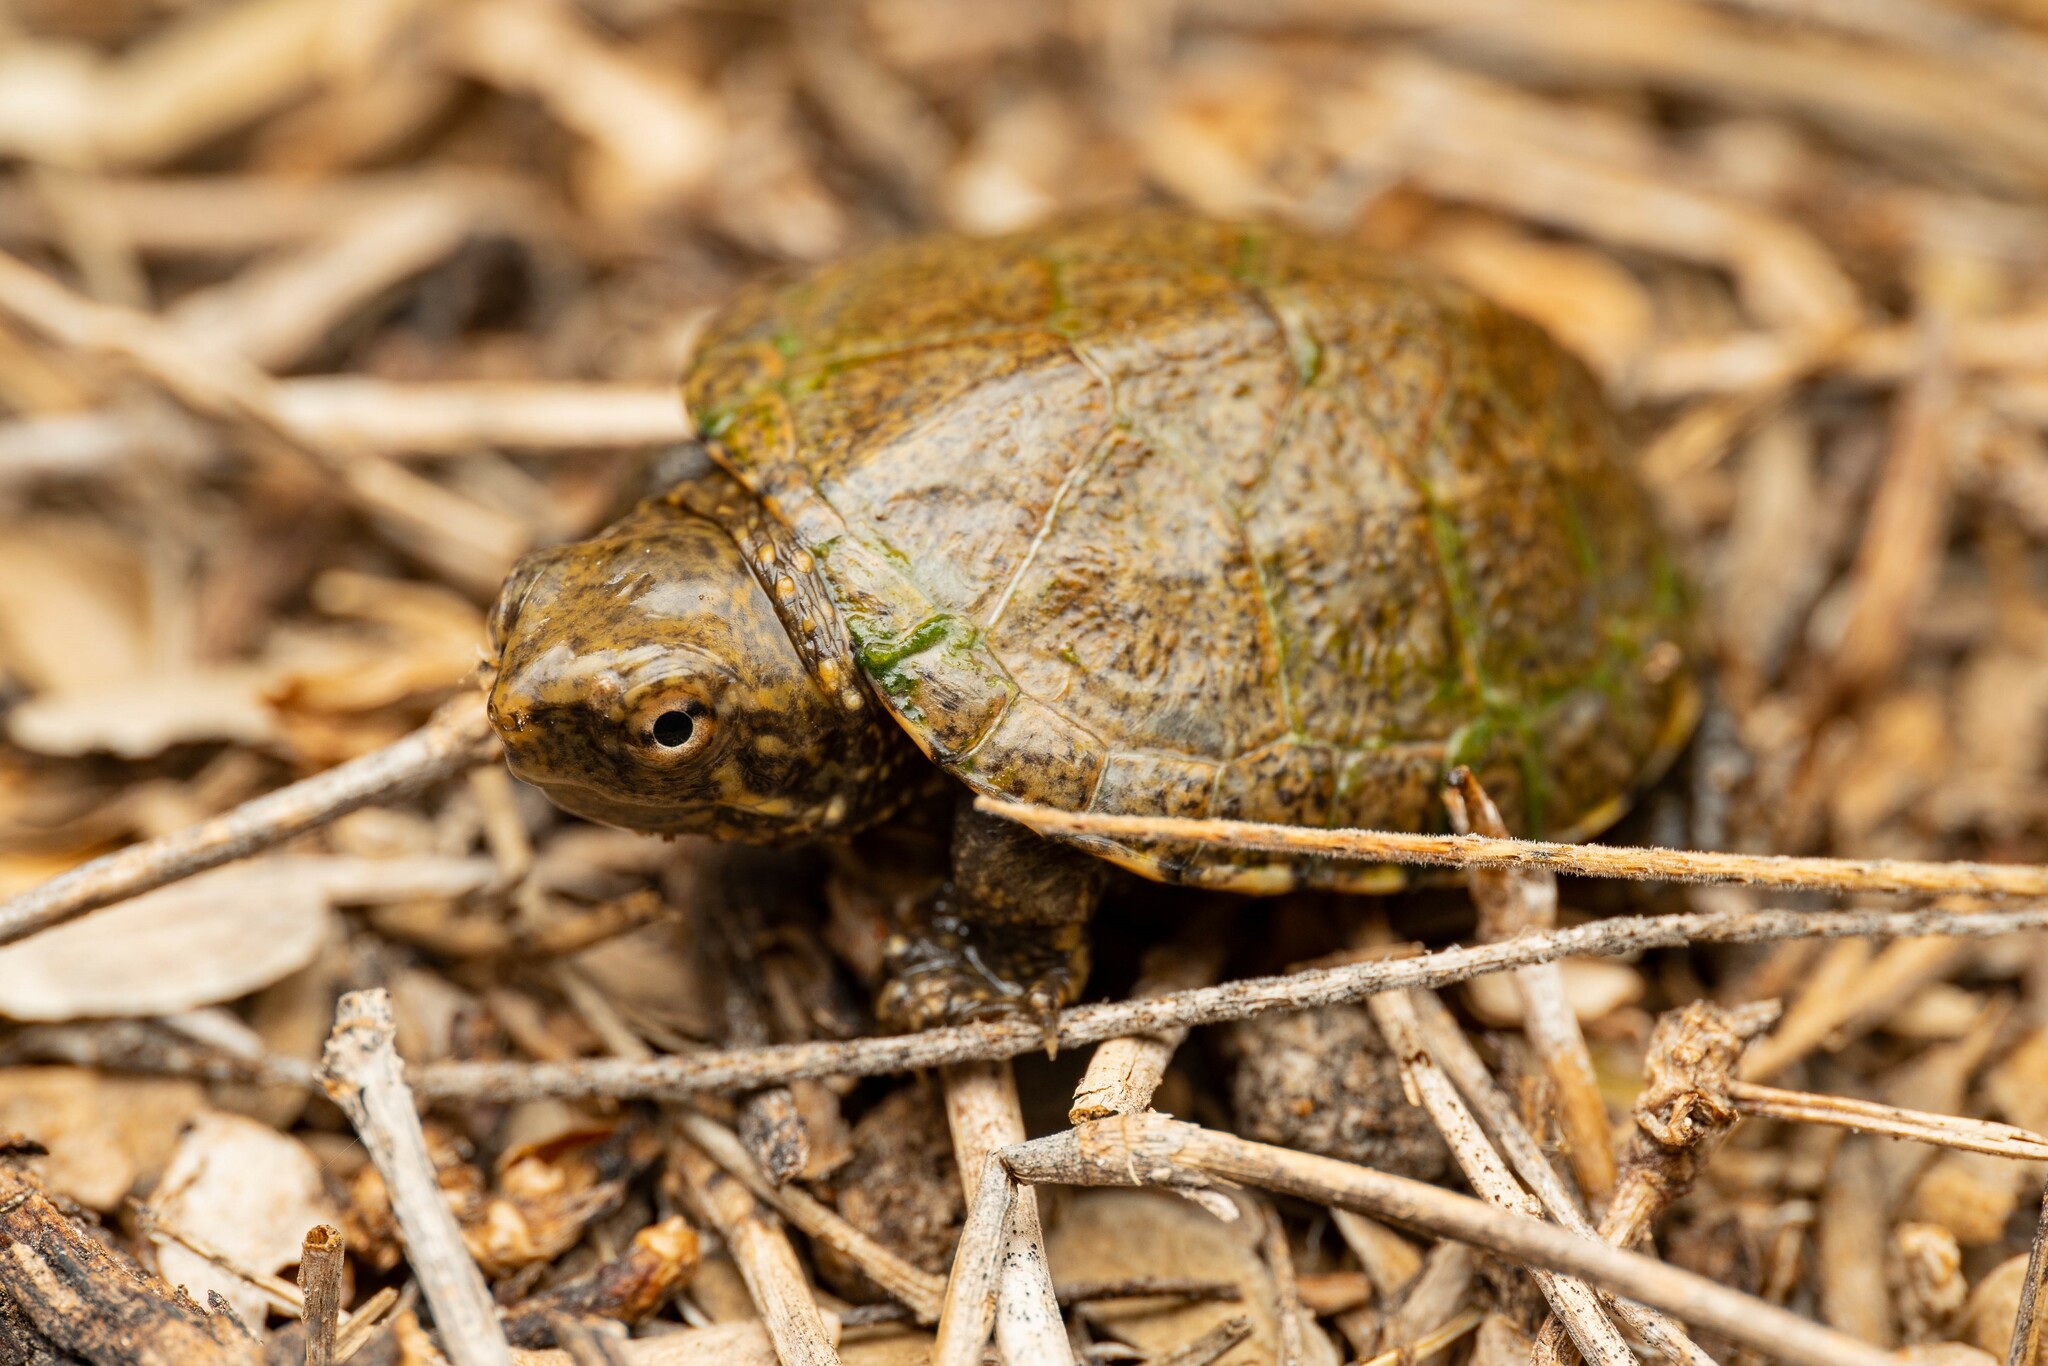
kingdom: Animalia
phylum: Chordata
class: Testudines
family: Kinosternidae
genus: Kinosternon
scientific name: Kinosternon sonoriense
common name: Sonora mud turtle
